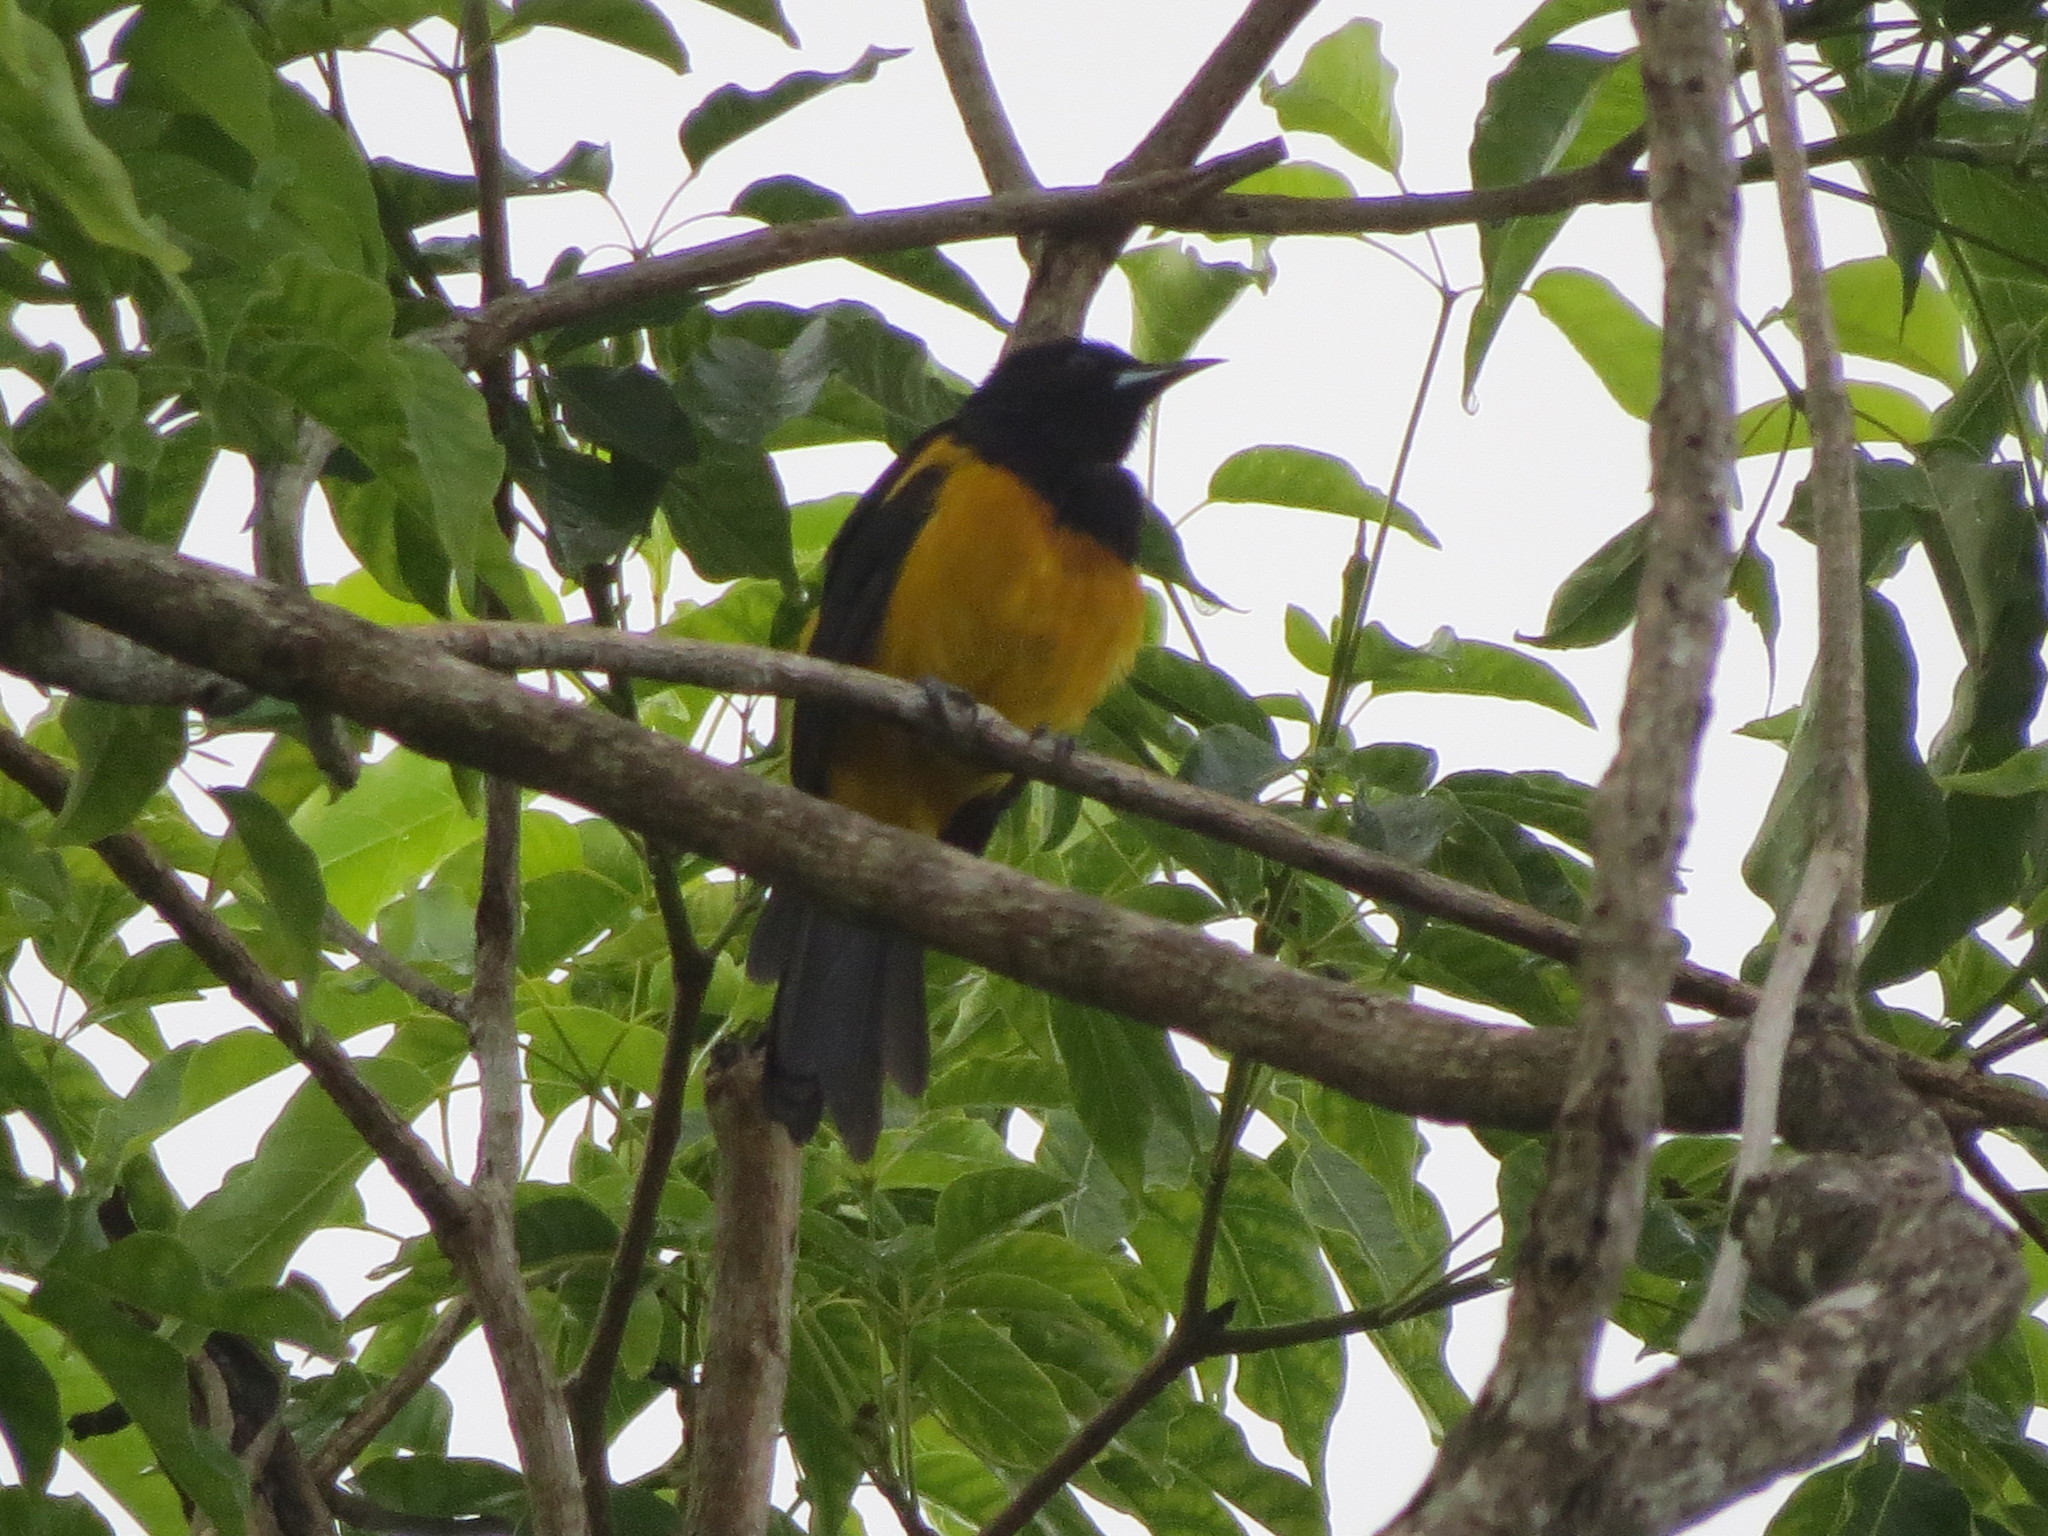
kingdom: Animalia
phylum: Chordata
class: Aves
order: Passeriformes
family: Icteridae
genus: Icterus
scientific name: Icterus prosthemelas
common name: Black-cowled oriole
